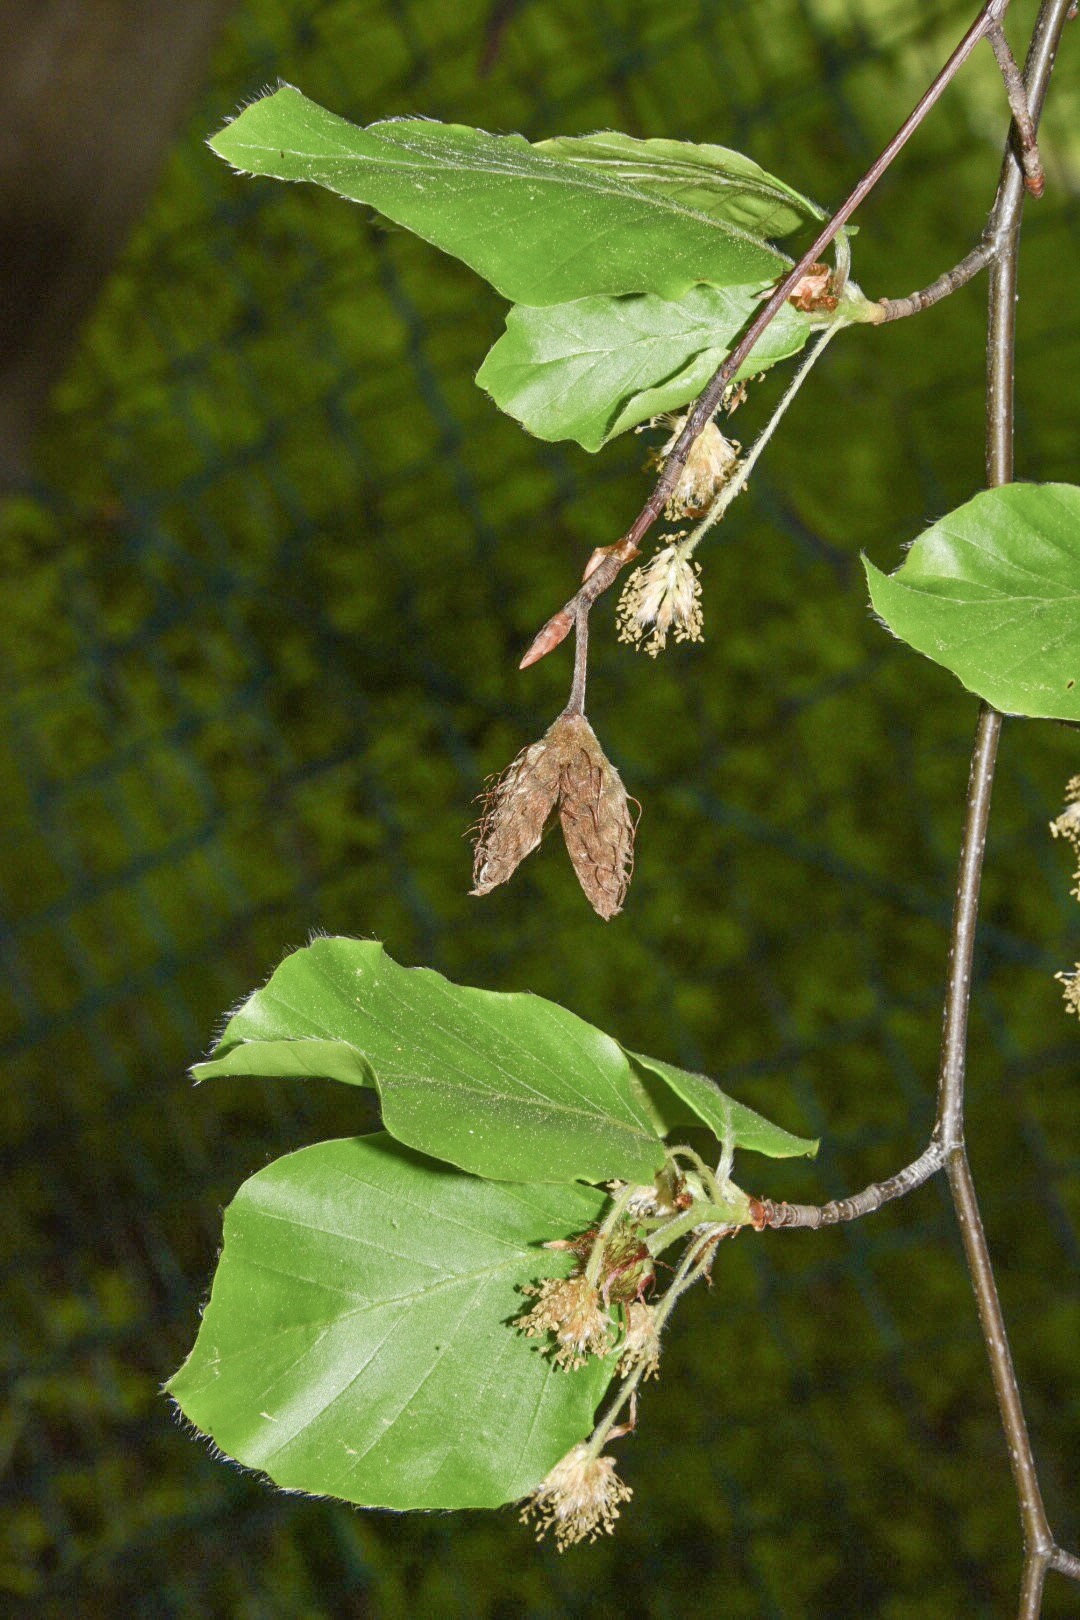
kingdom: Plantae
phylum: Tracheophyta
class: Magnoliopsida
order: Fagales
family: Fagaceae
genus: Fagus
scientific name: Fagus sylvatica
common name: Beech
